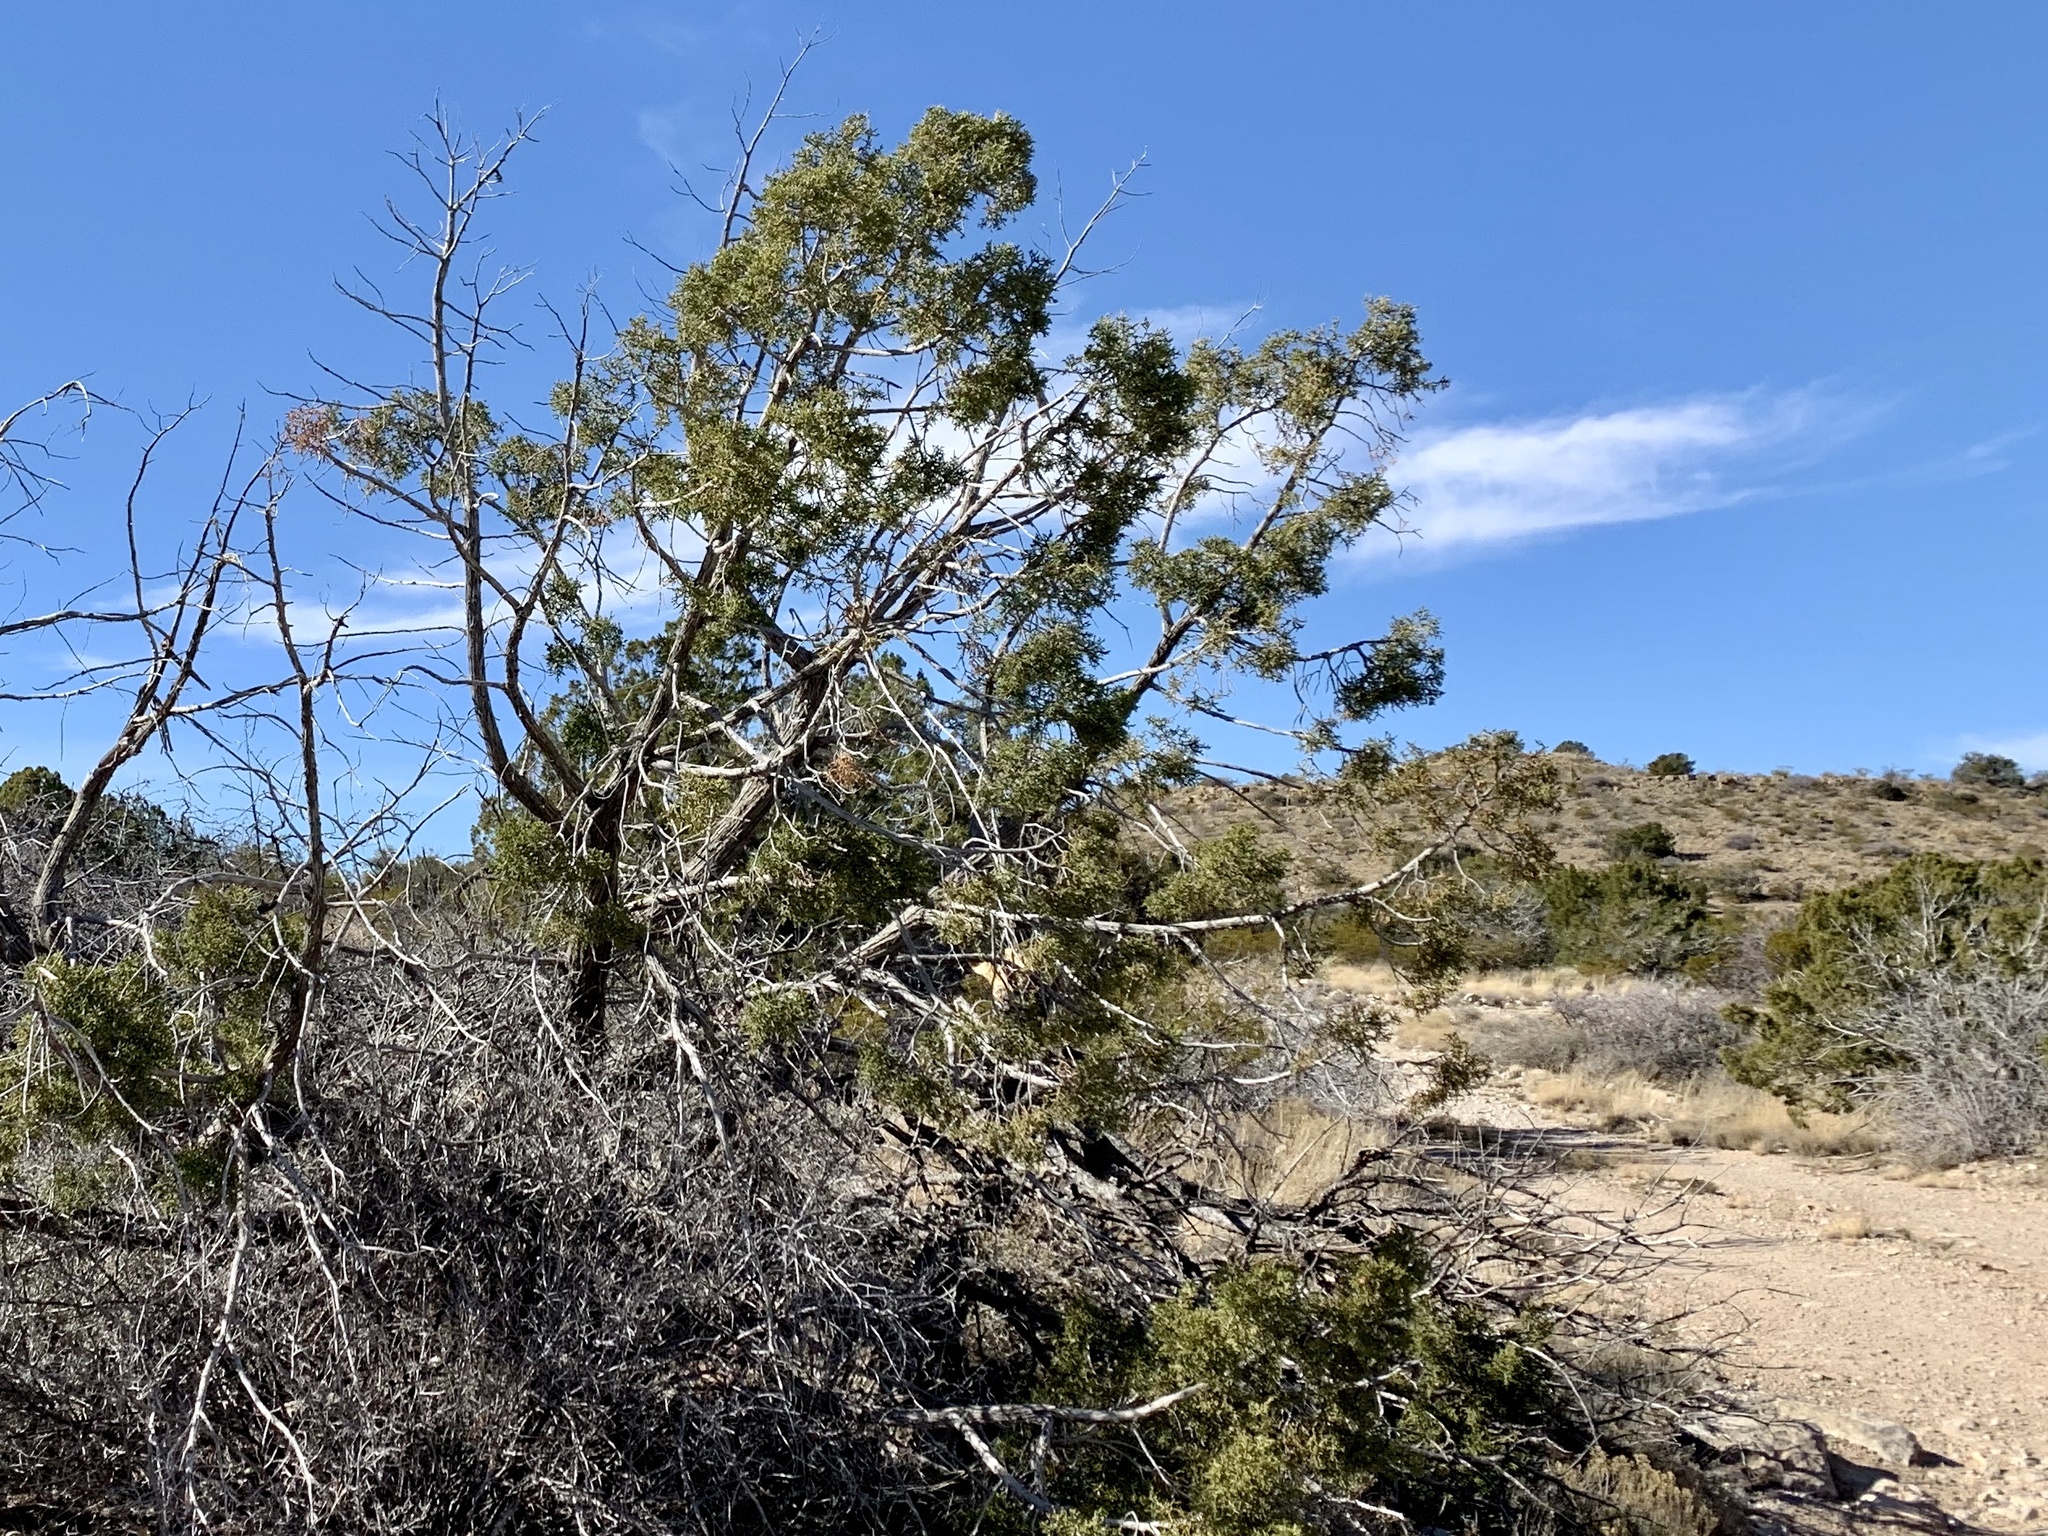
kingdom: Plantae
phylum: Tracheophyta
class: Pinopsida
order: Pinales
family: Cupressaceae
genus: Juniperus
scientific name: Juniperus monosperma
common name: One-seed juniper
